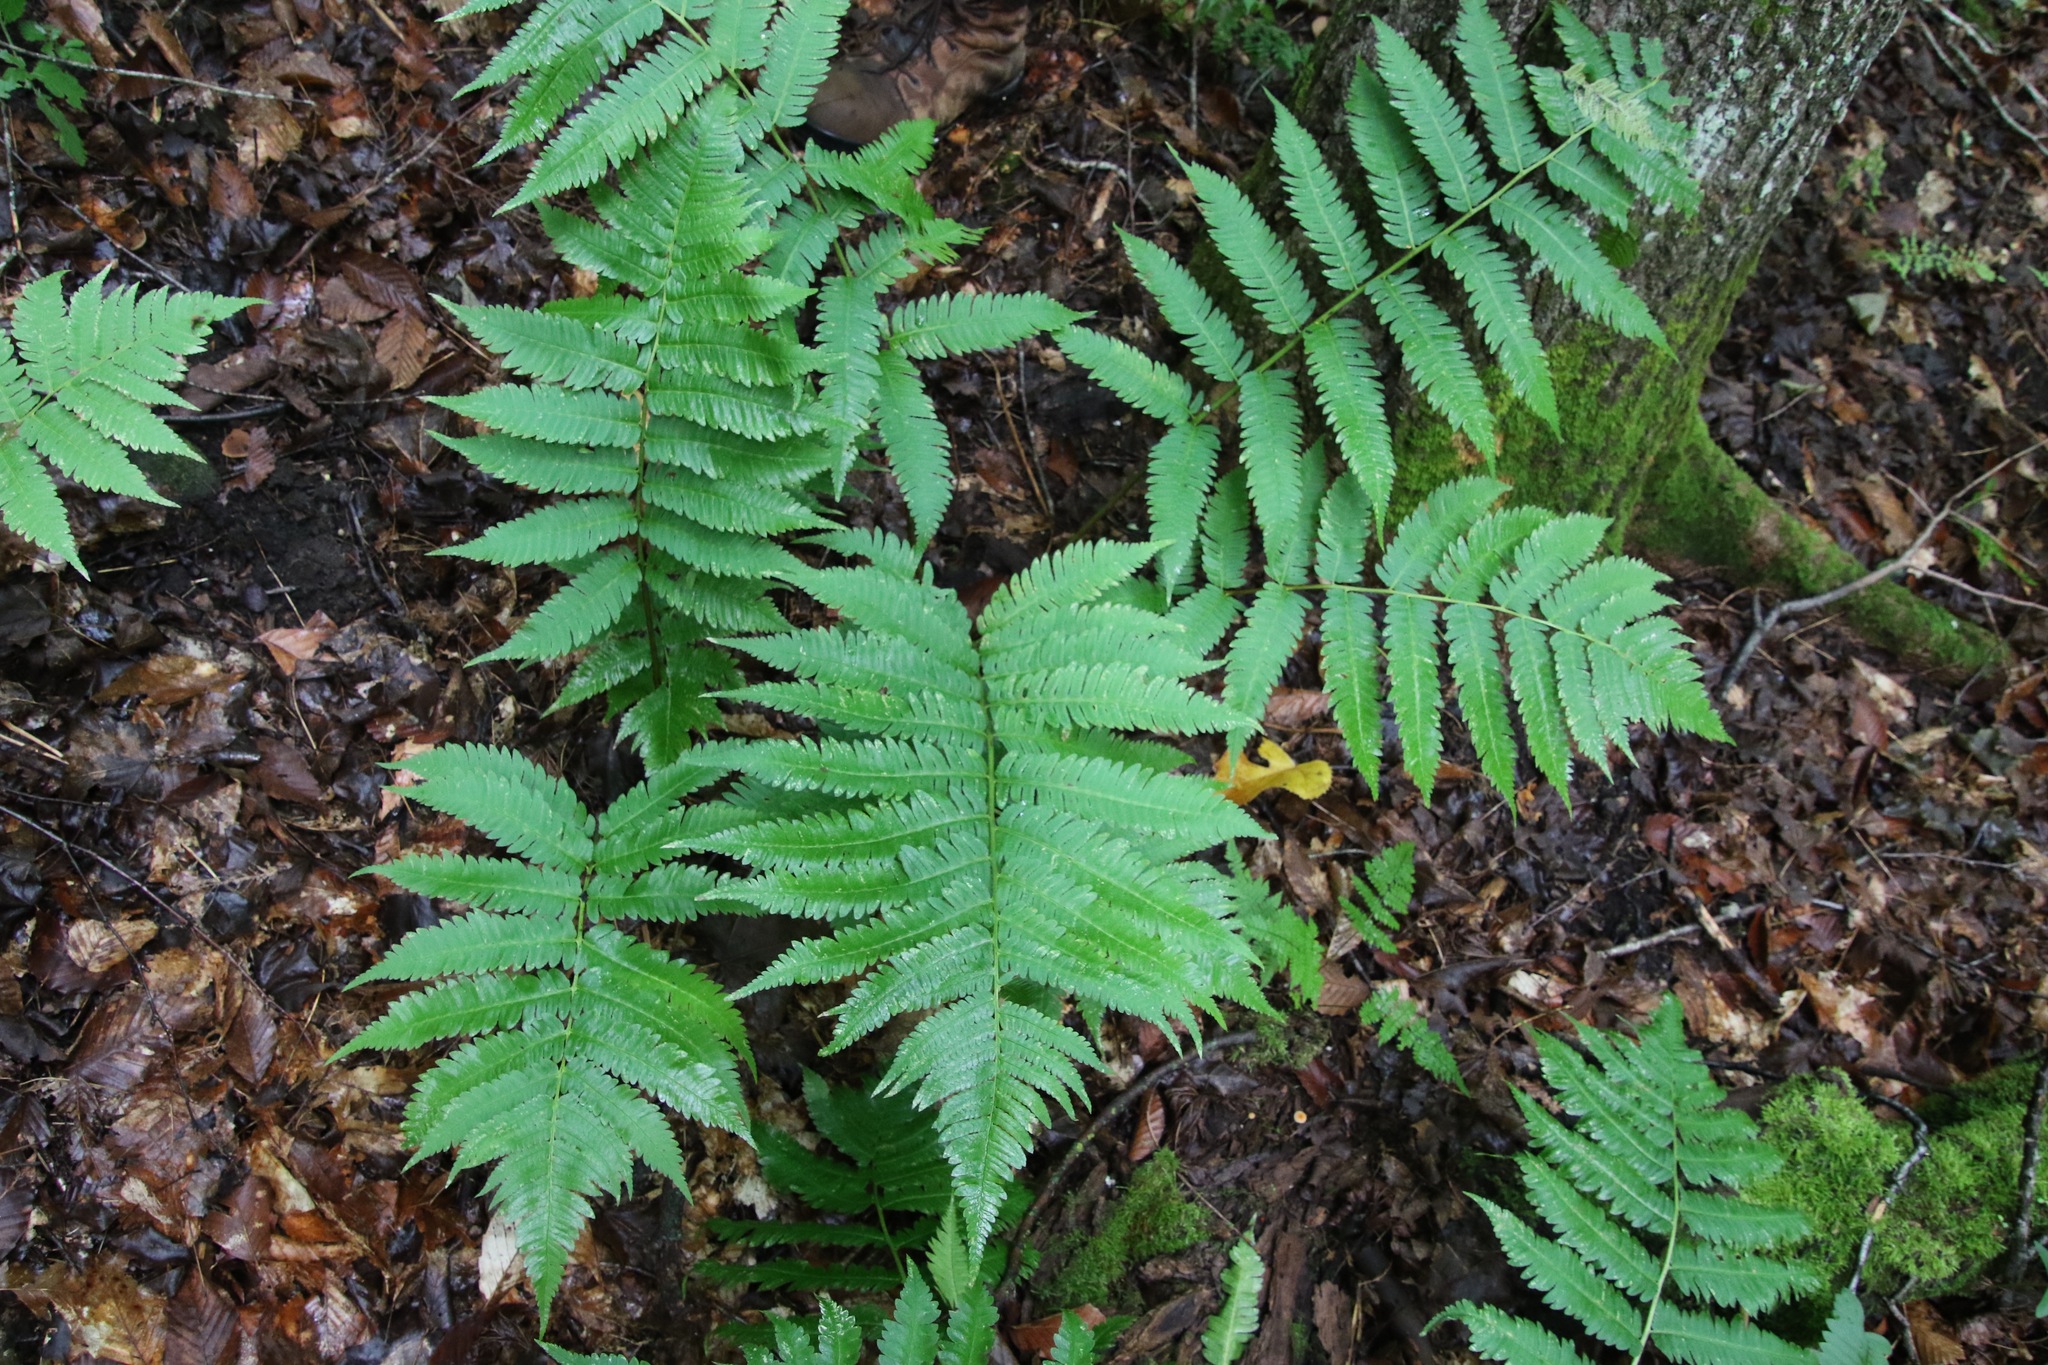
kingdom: Plantae
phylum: Tracheophyta
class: Polypodiopsida
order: Polypodiales
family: Dryopteridaceae
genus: Dryopteris
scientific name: Dryopteris goldieana
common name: Goldie's fern
